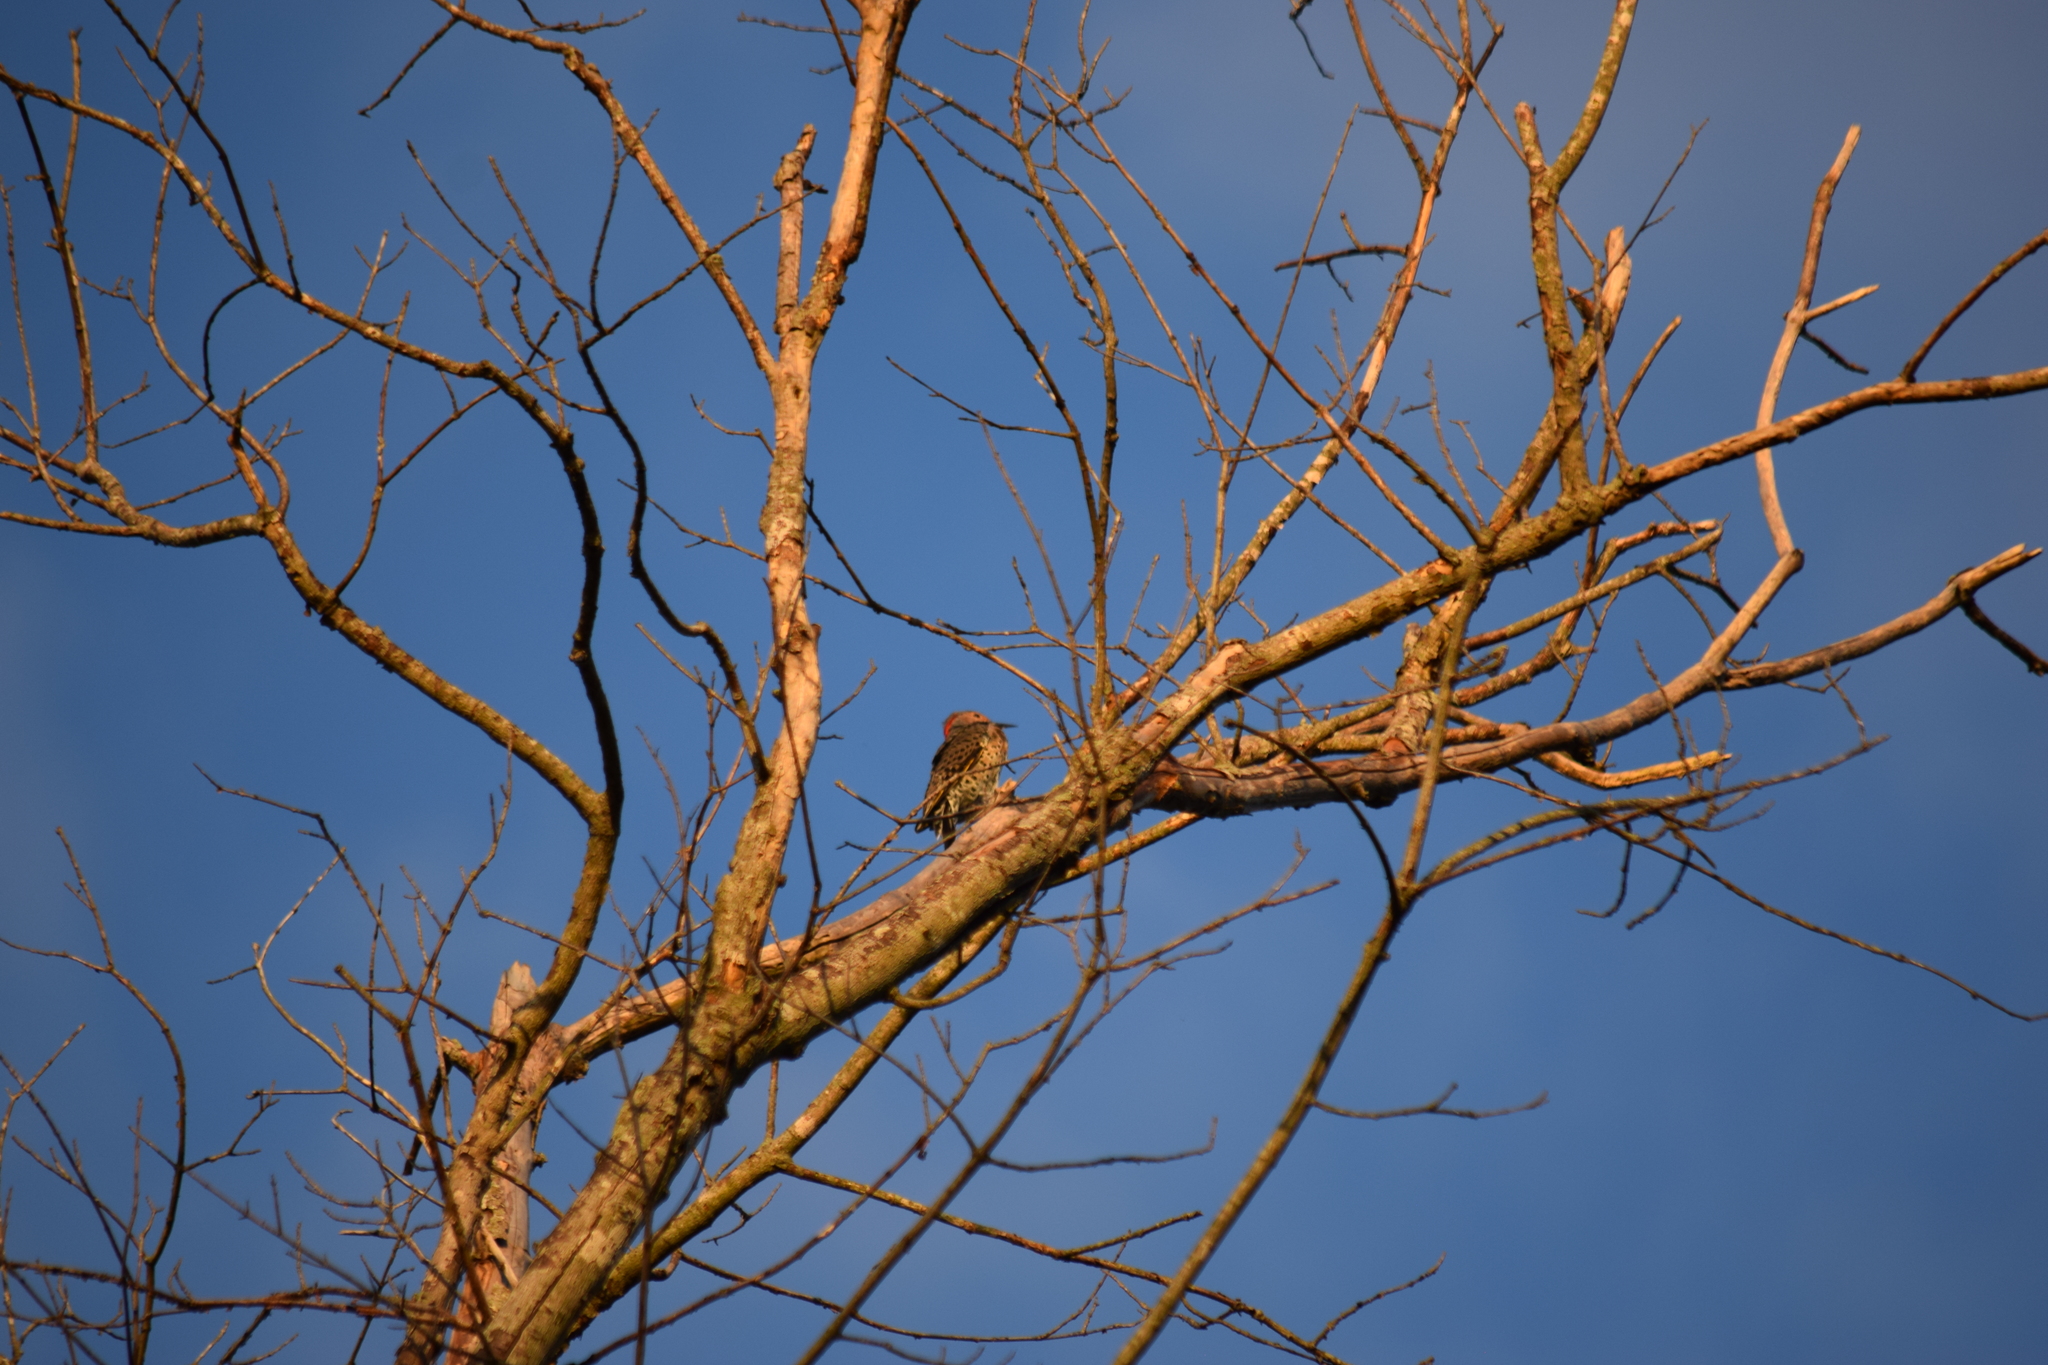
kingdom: Animalia
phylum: Chordata
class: Aves
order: Piciformes
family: Picidae
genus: Colaptes
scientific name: Colaptes auratus
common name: Northern flicker
